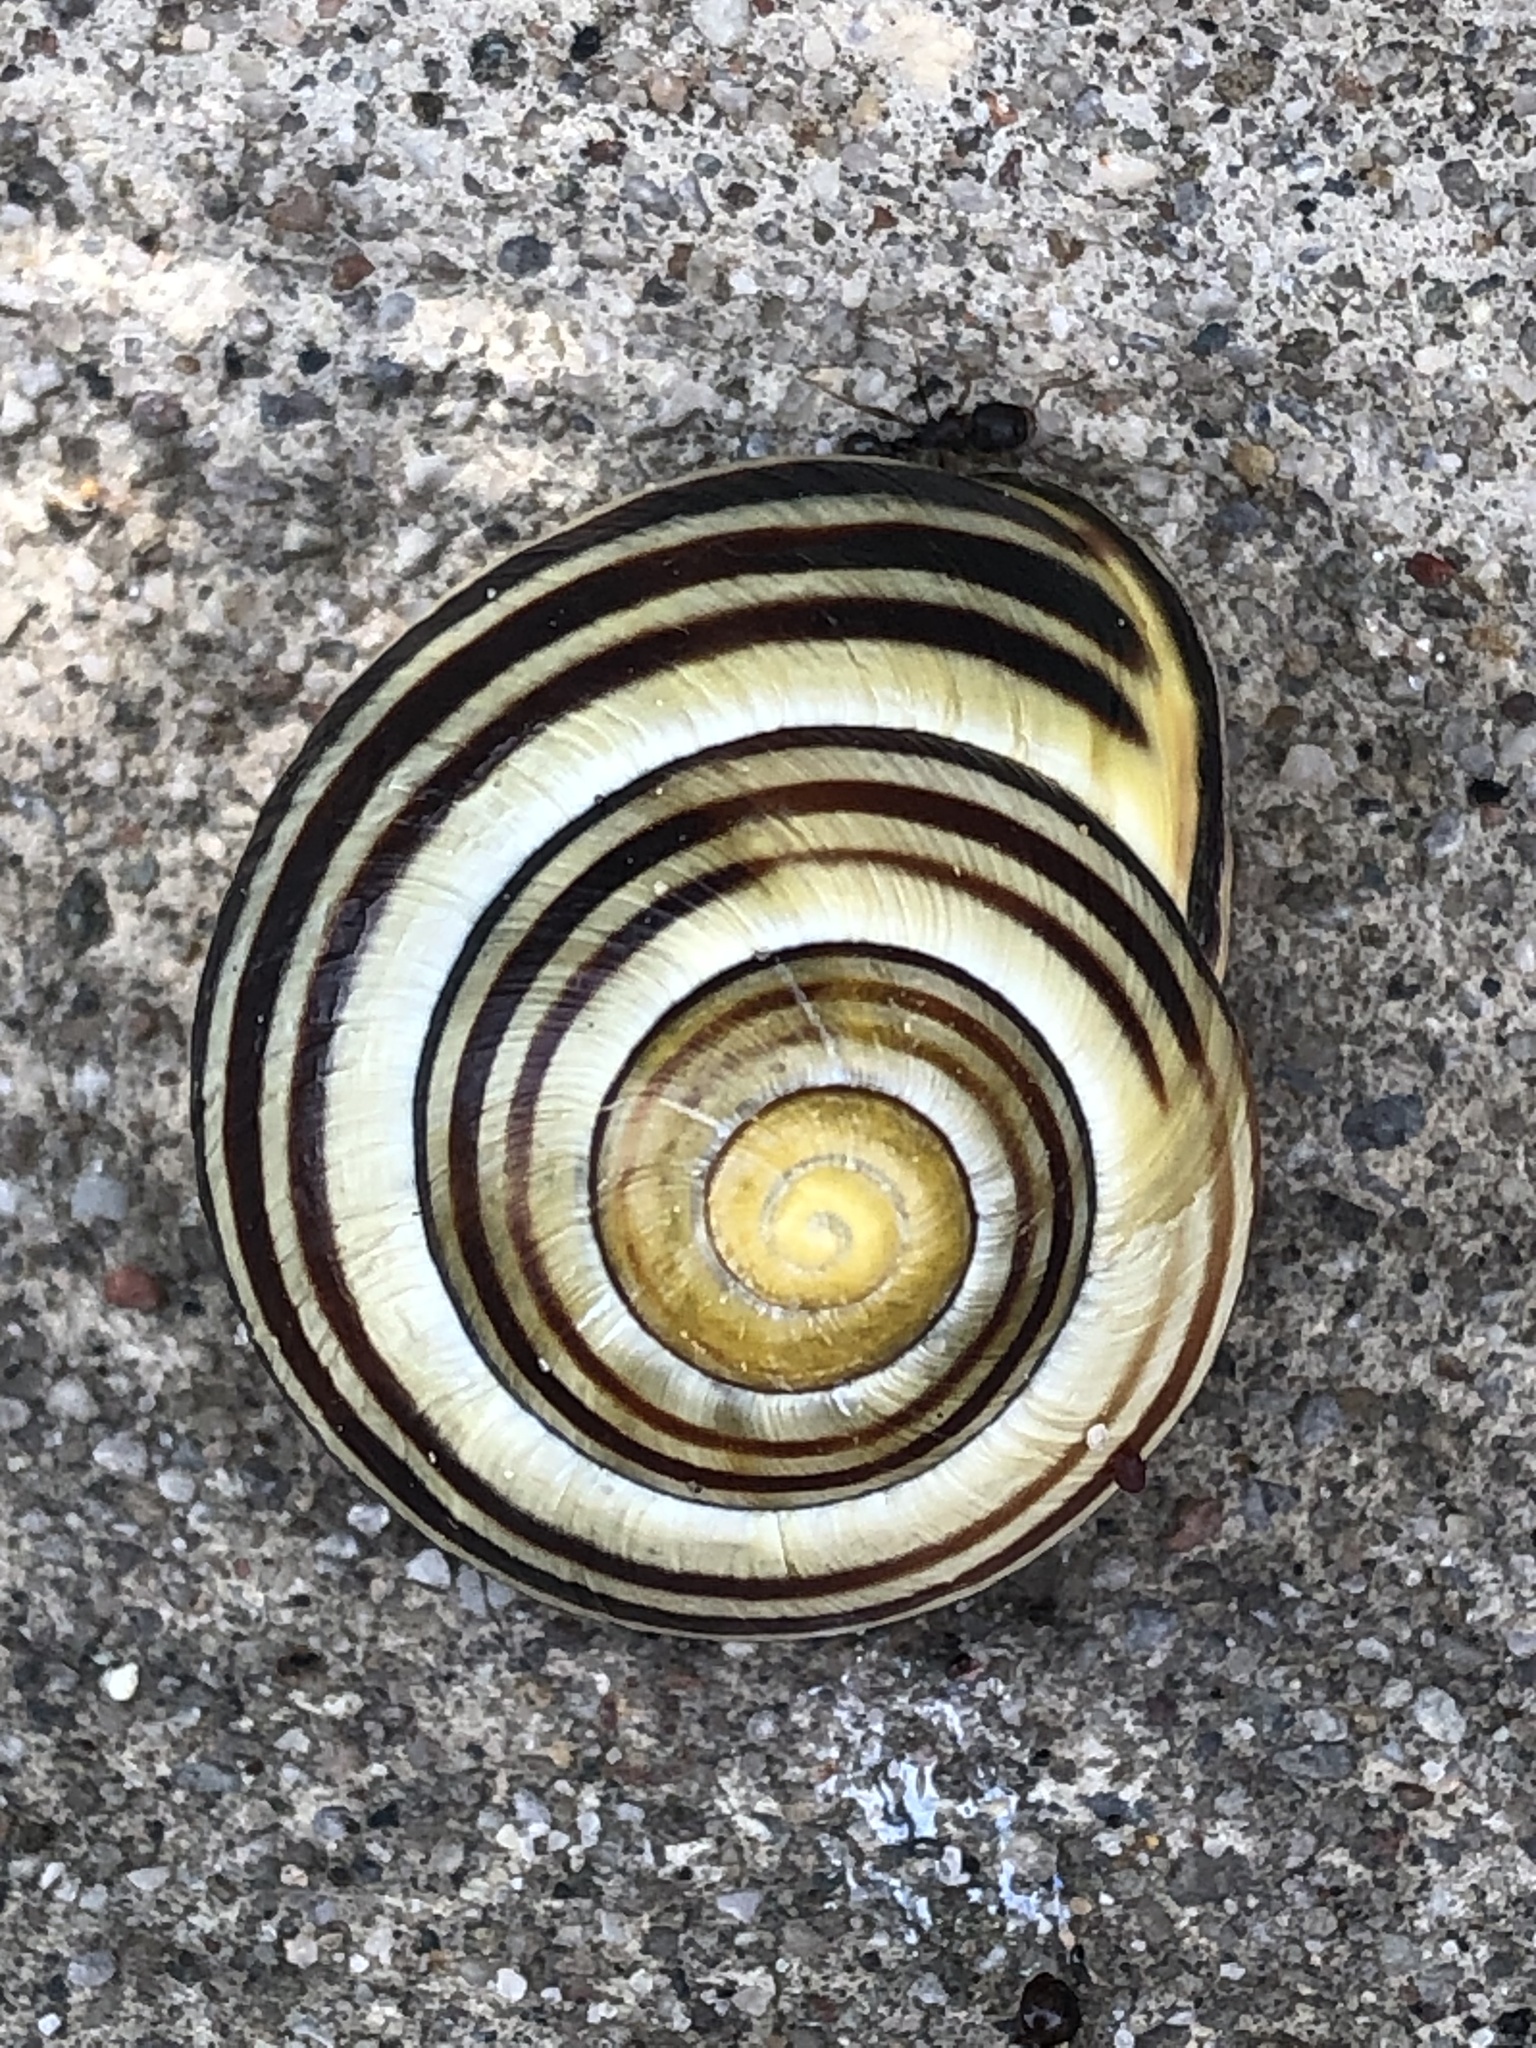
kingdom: Animalia
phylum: Mollusca
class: Gastropoda
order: Stylommatophora
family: Helicidae
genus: Cepaea
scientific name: Cepaea nemoralis
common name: Grovesnail
